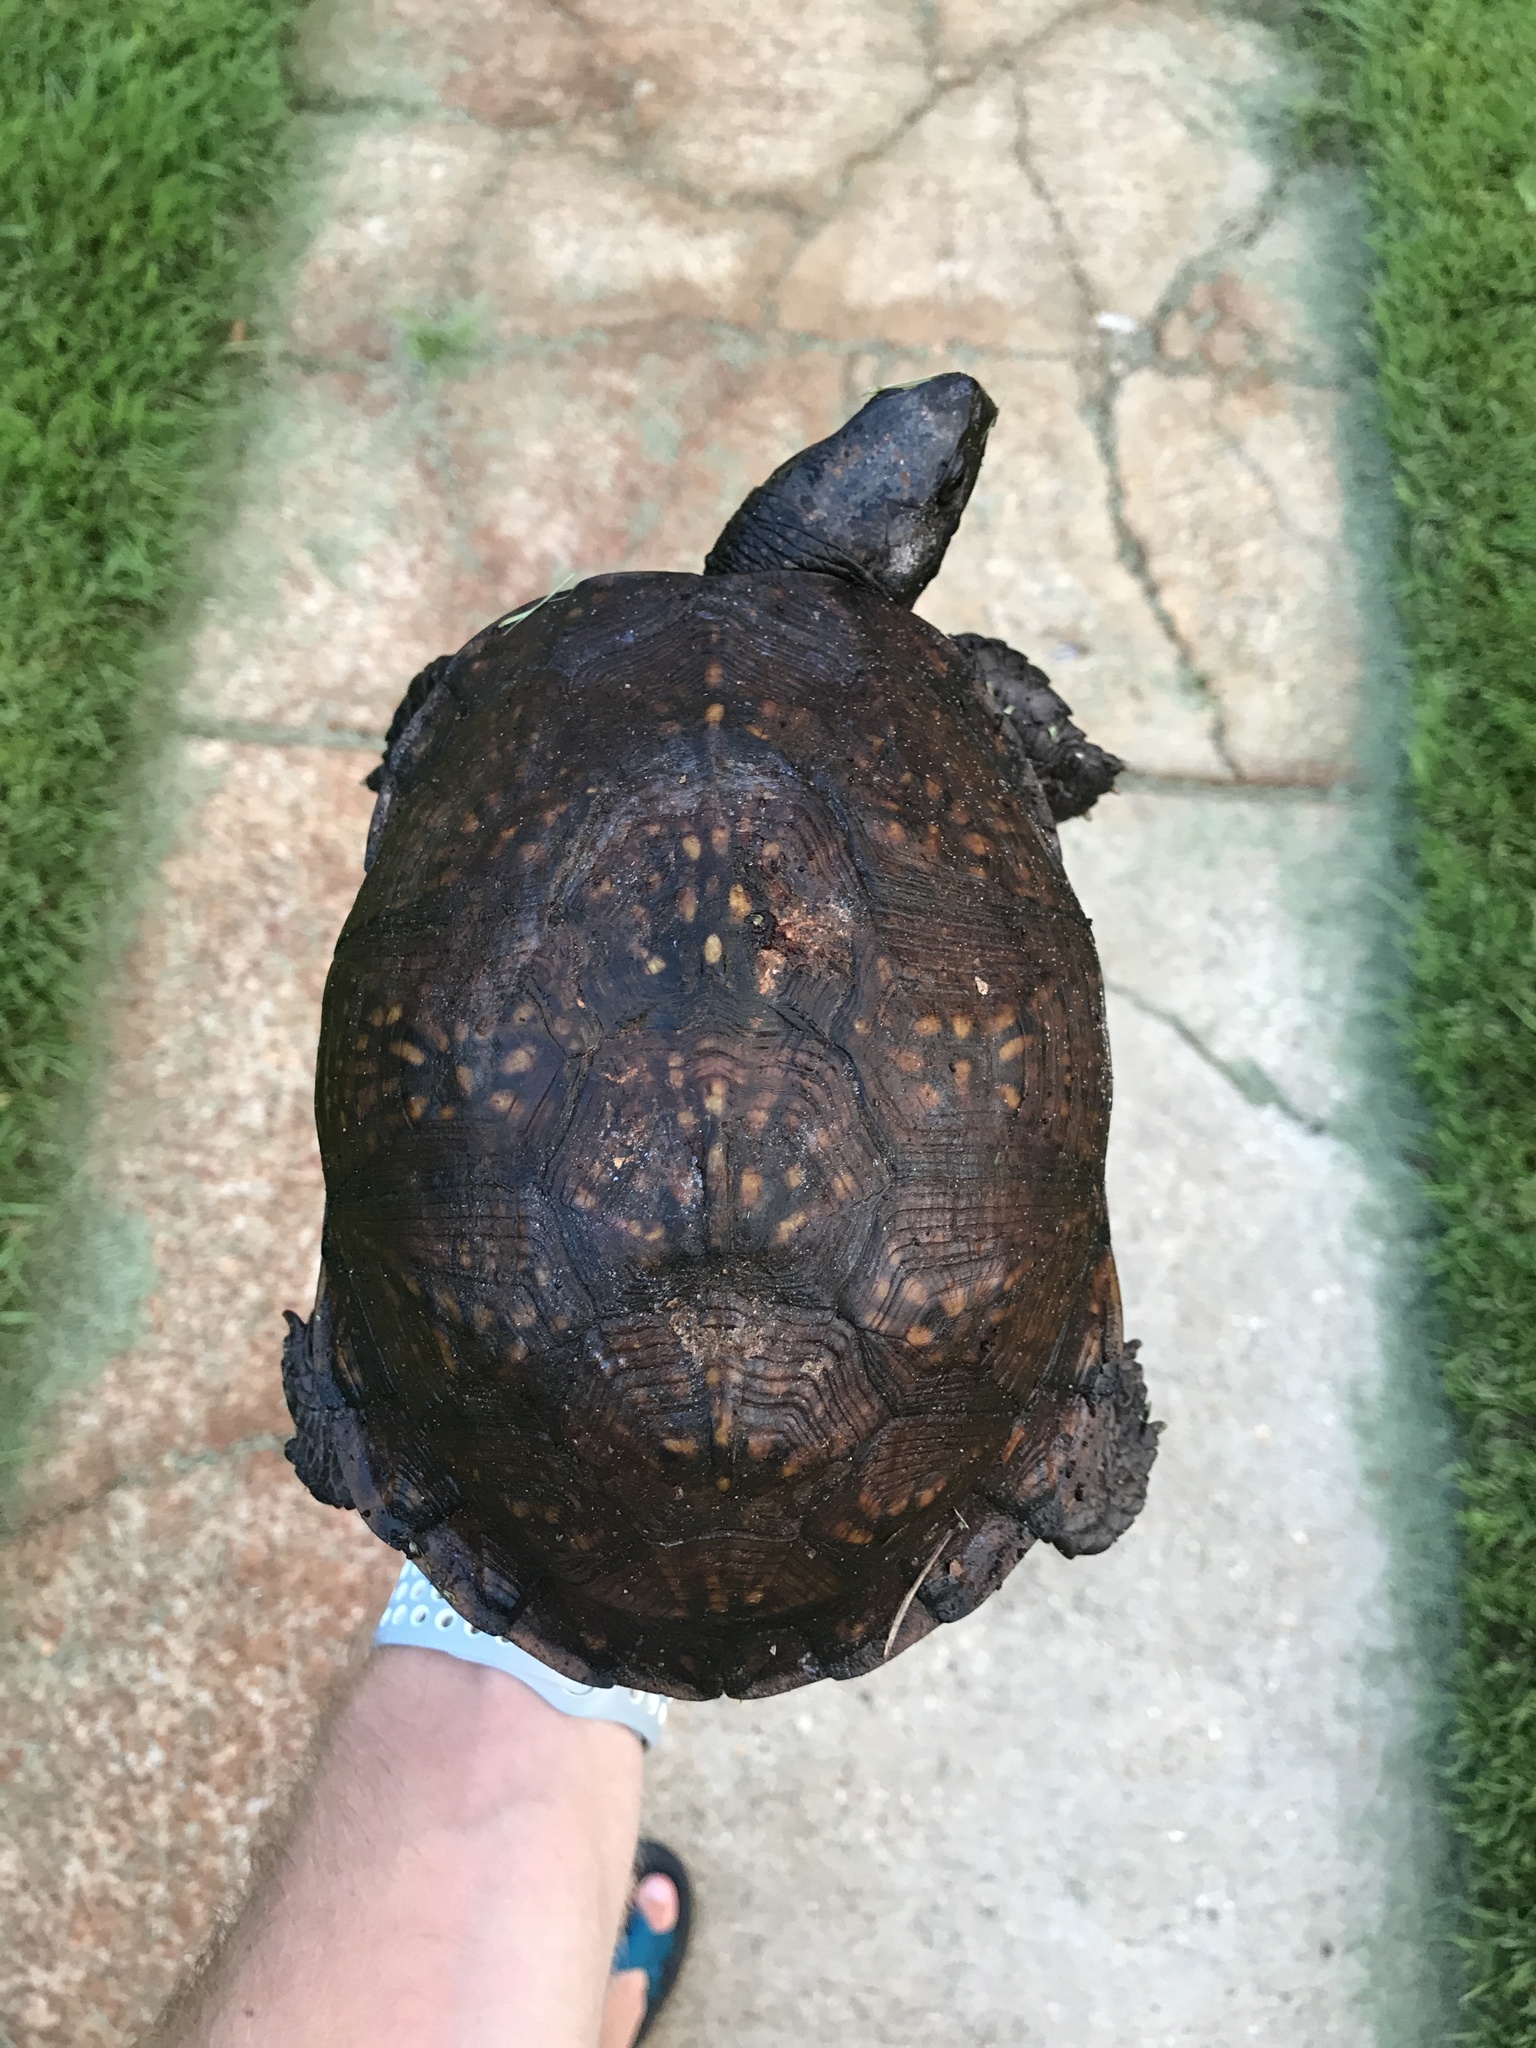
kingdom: Animalia
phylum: Chordata
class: Testudines
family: Emydidae
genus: Terrapene
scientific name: Terrapene carolina
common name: Common box turtle
